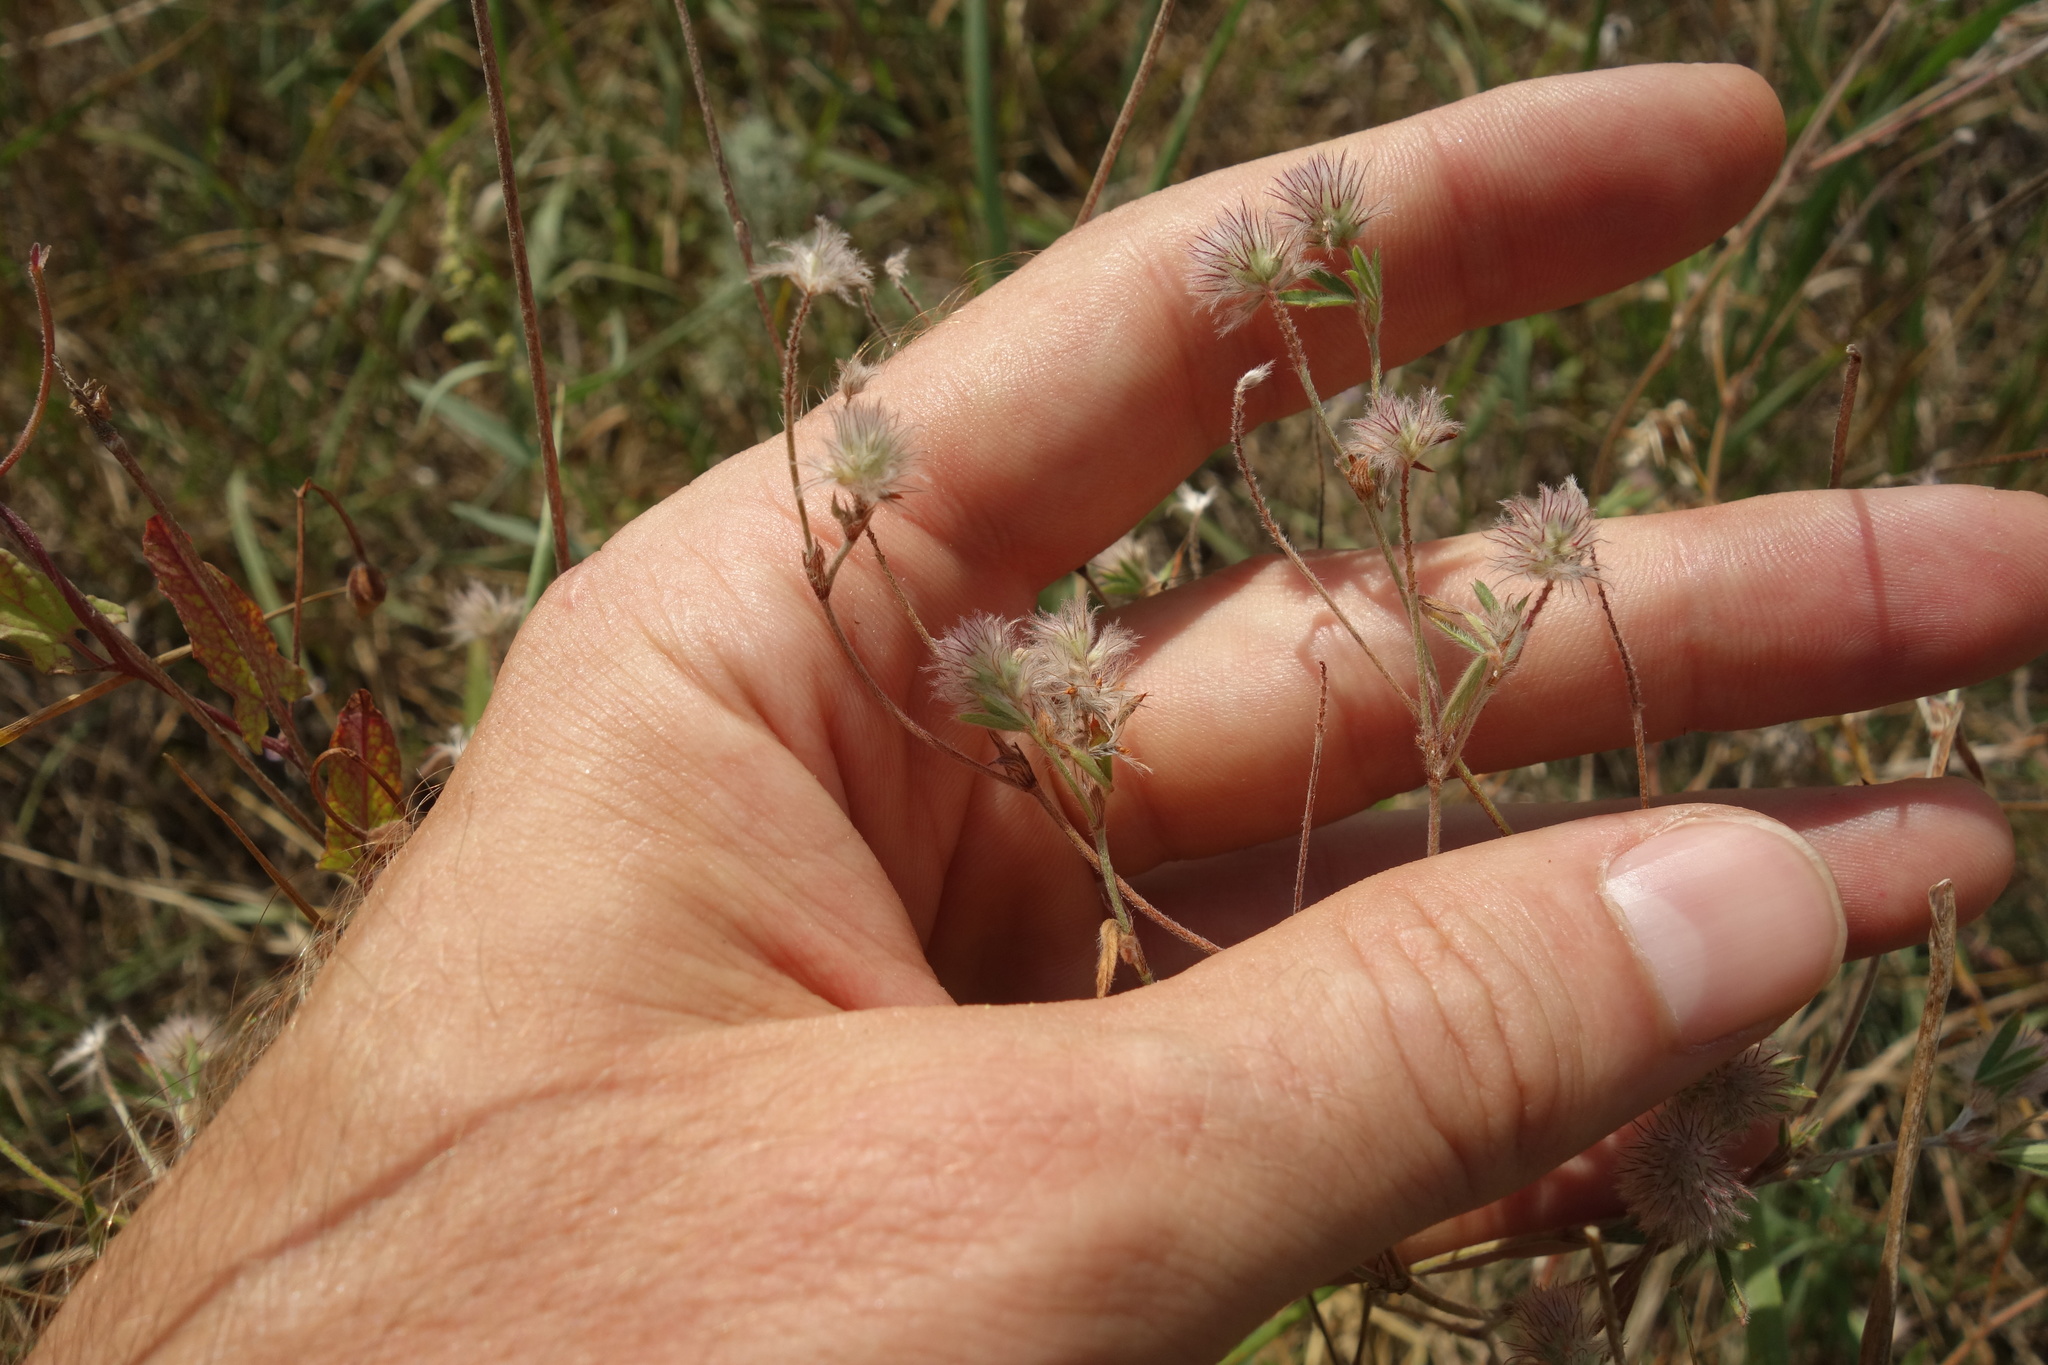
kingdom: Plantae
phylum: Tracheophyta
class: Magnoliopsida
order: Fabales
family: Fabaceae
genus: Trifolium
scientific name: Trifolium arvense
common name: Hare's-foot clover
